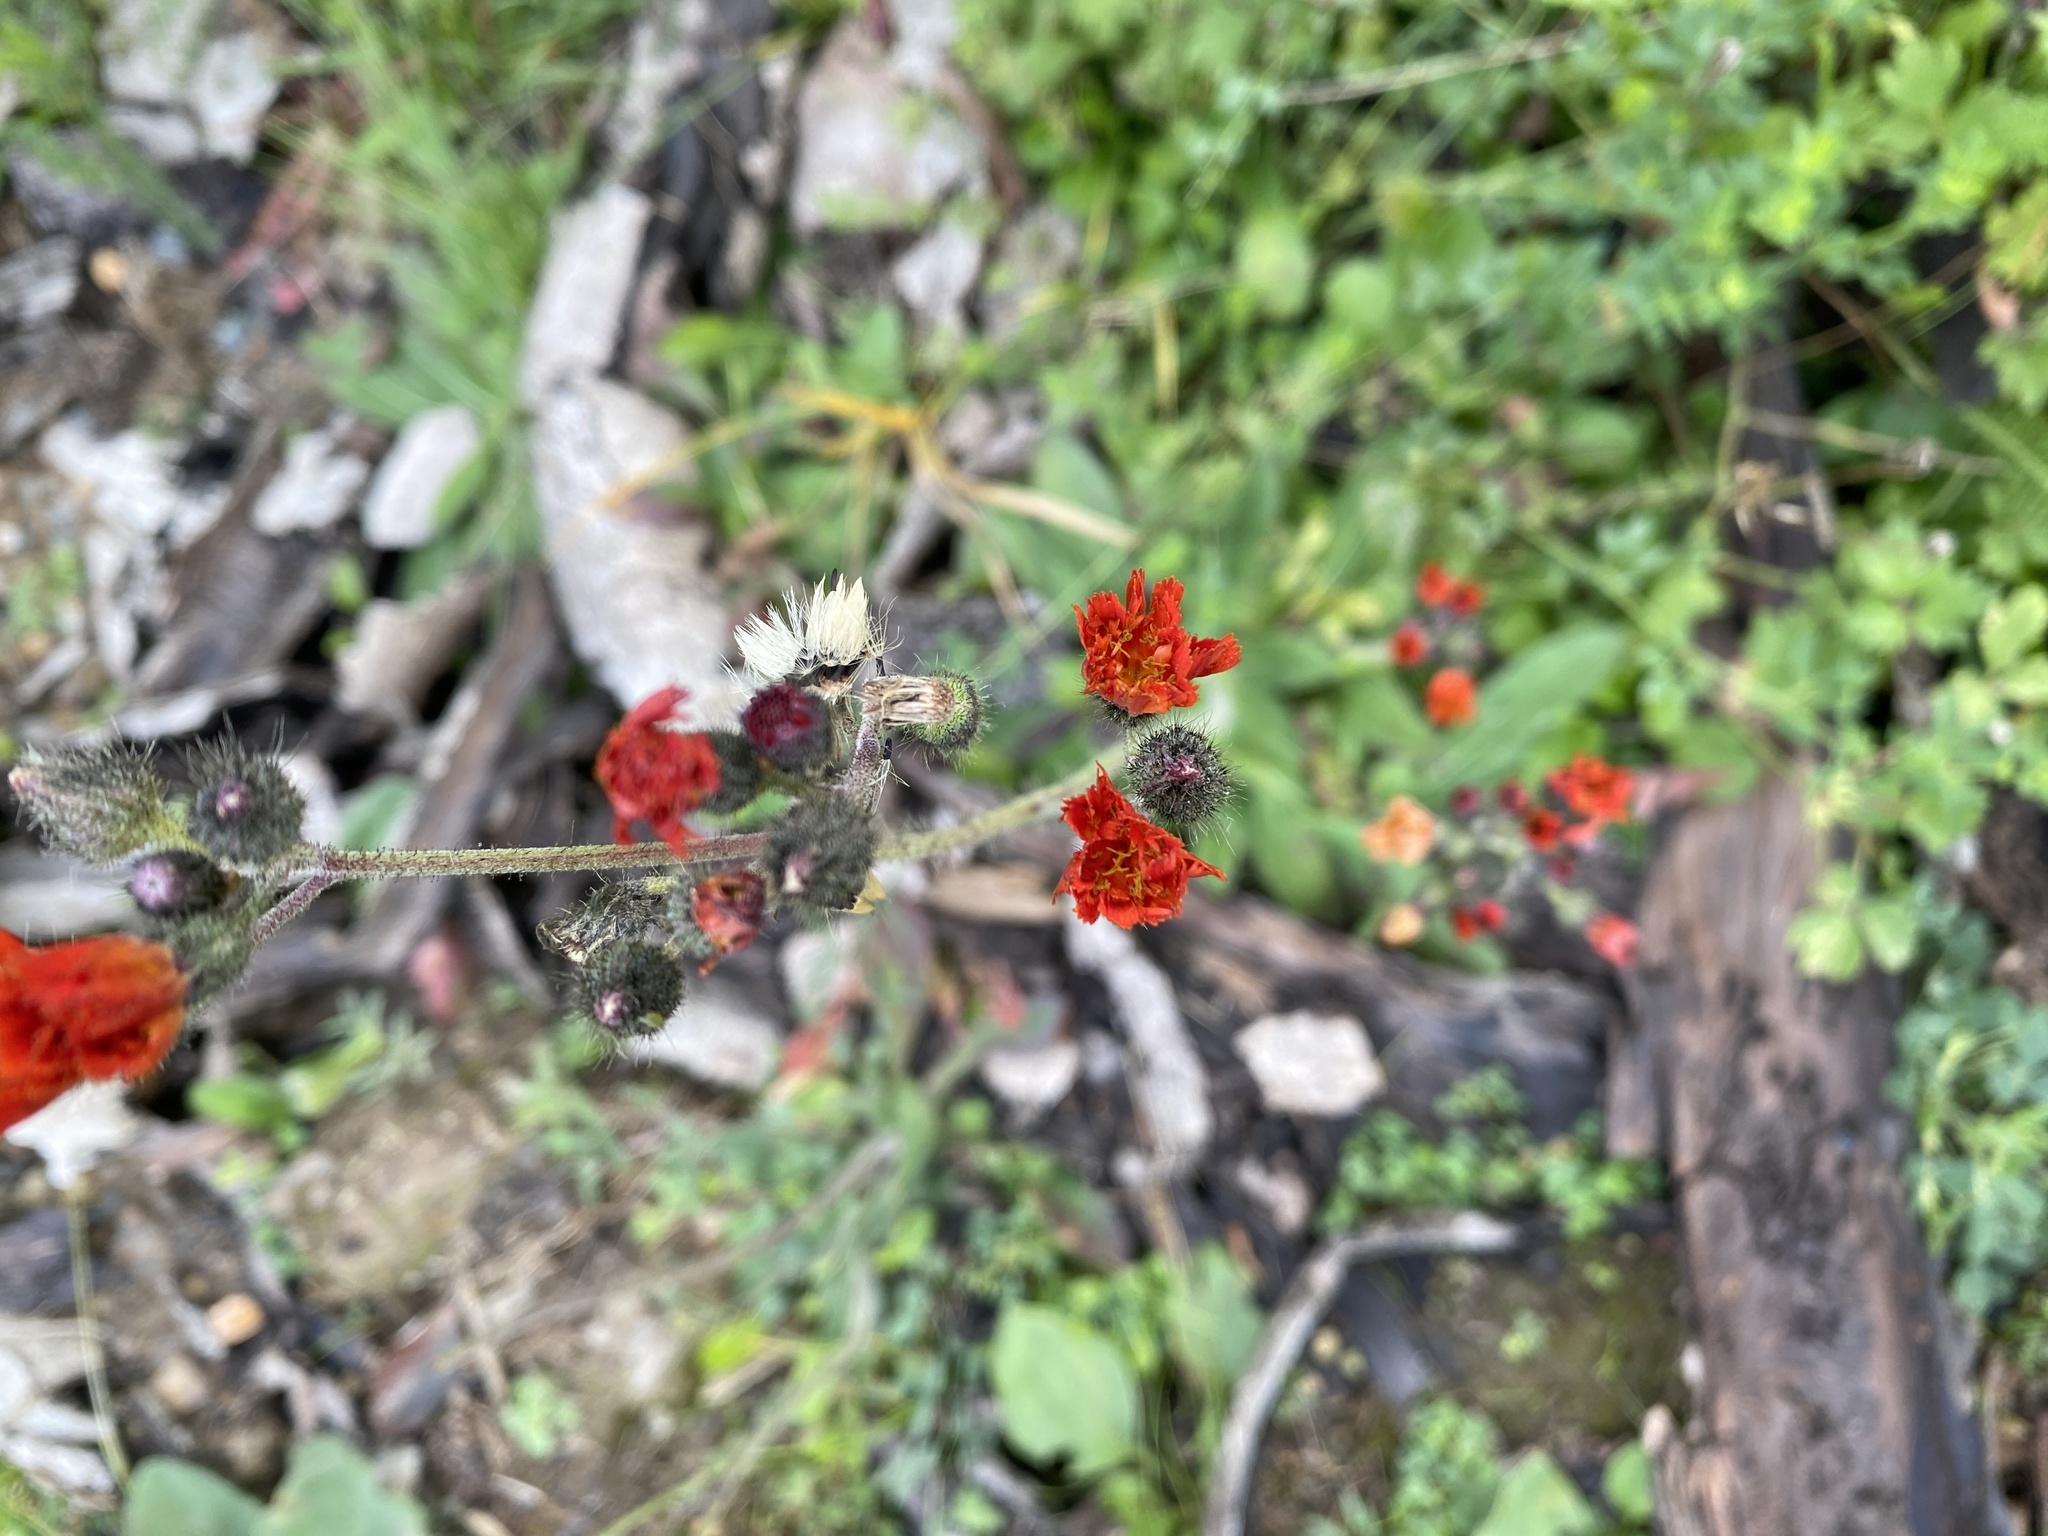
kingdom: Plantae
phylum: Tracheophyta
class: Magnoliopsida
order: Asterales
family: Asteraceae
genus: Pilosella
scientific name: Pilosella aurantiaca
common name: Fox-and-cubs
